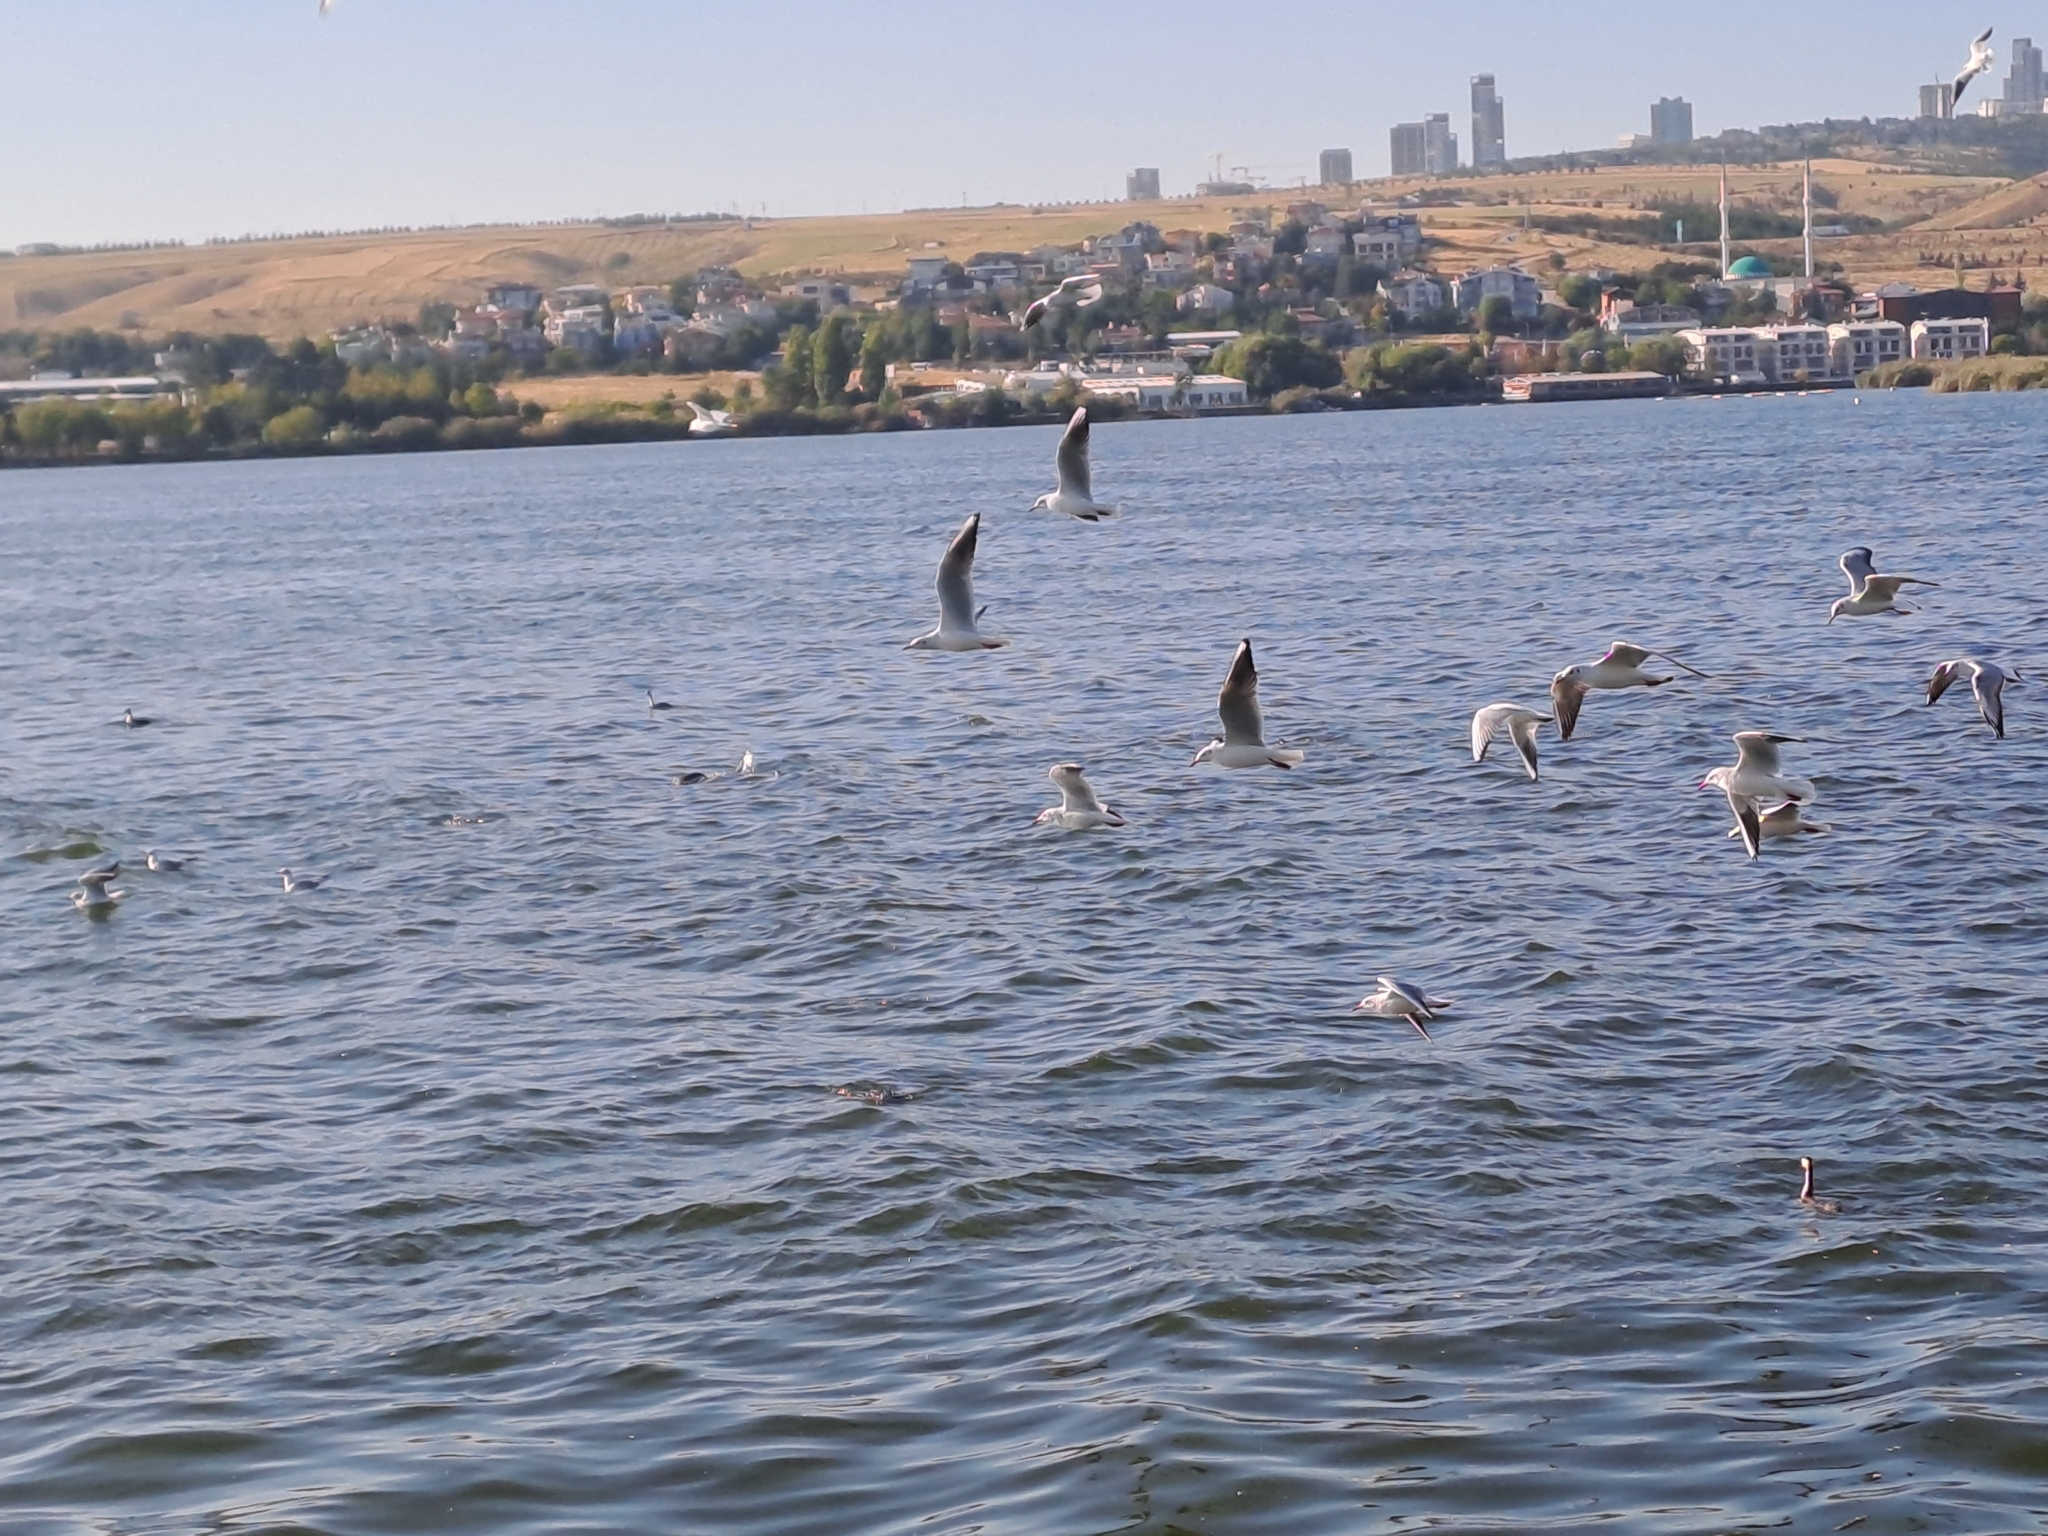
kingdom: Animalia
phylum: Chordata
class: Aves
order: Charadriiformes
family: Laridae
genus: Chroicocephalus
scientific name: Chroicocephalus ridibundus
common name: Black-headed gull
